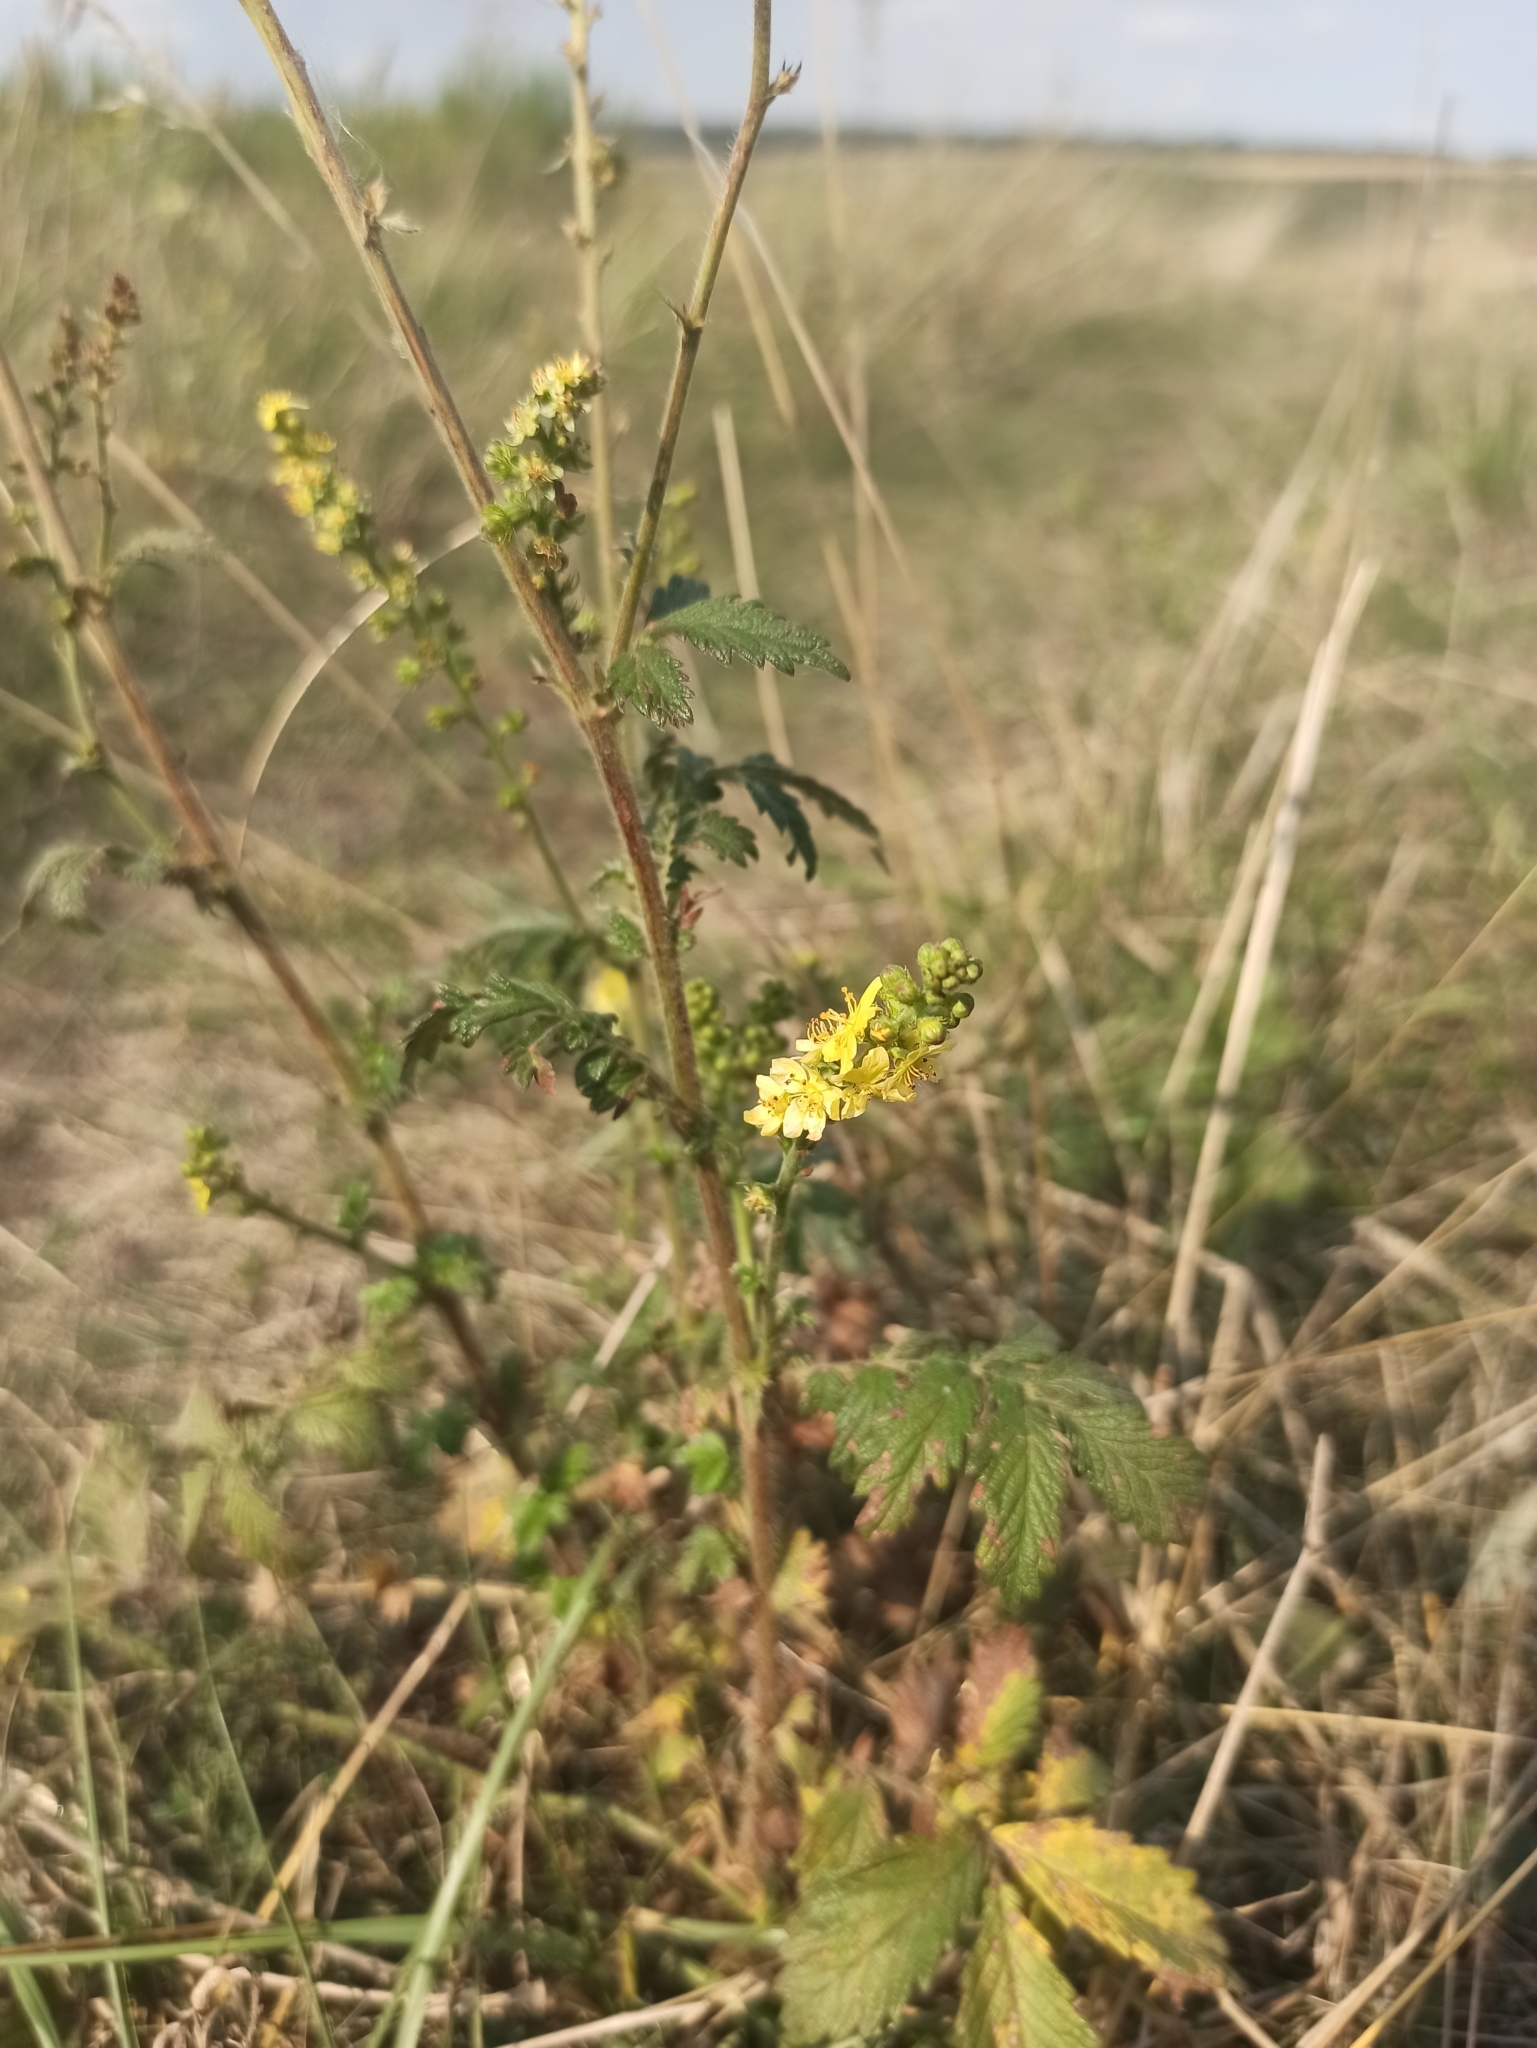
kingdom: Plantae
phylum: Tracheophyta
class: Magnoliopsida
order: Rosales
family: Rosaceae
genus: Agrimonia
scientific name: Agrimonia eupatoria
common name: Agrimony
